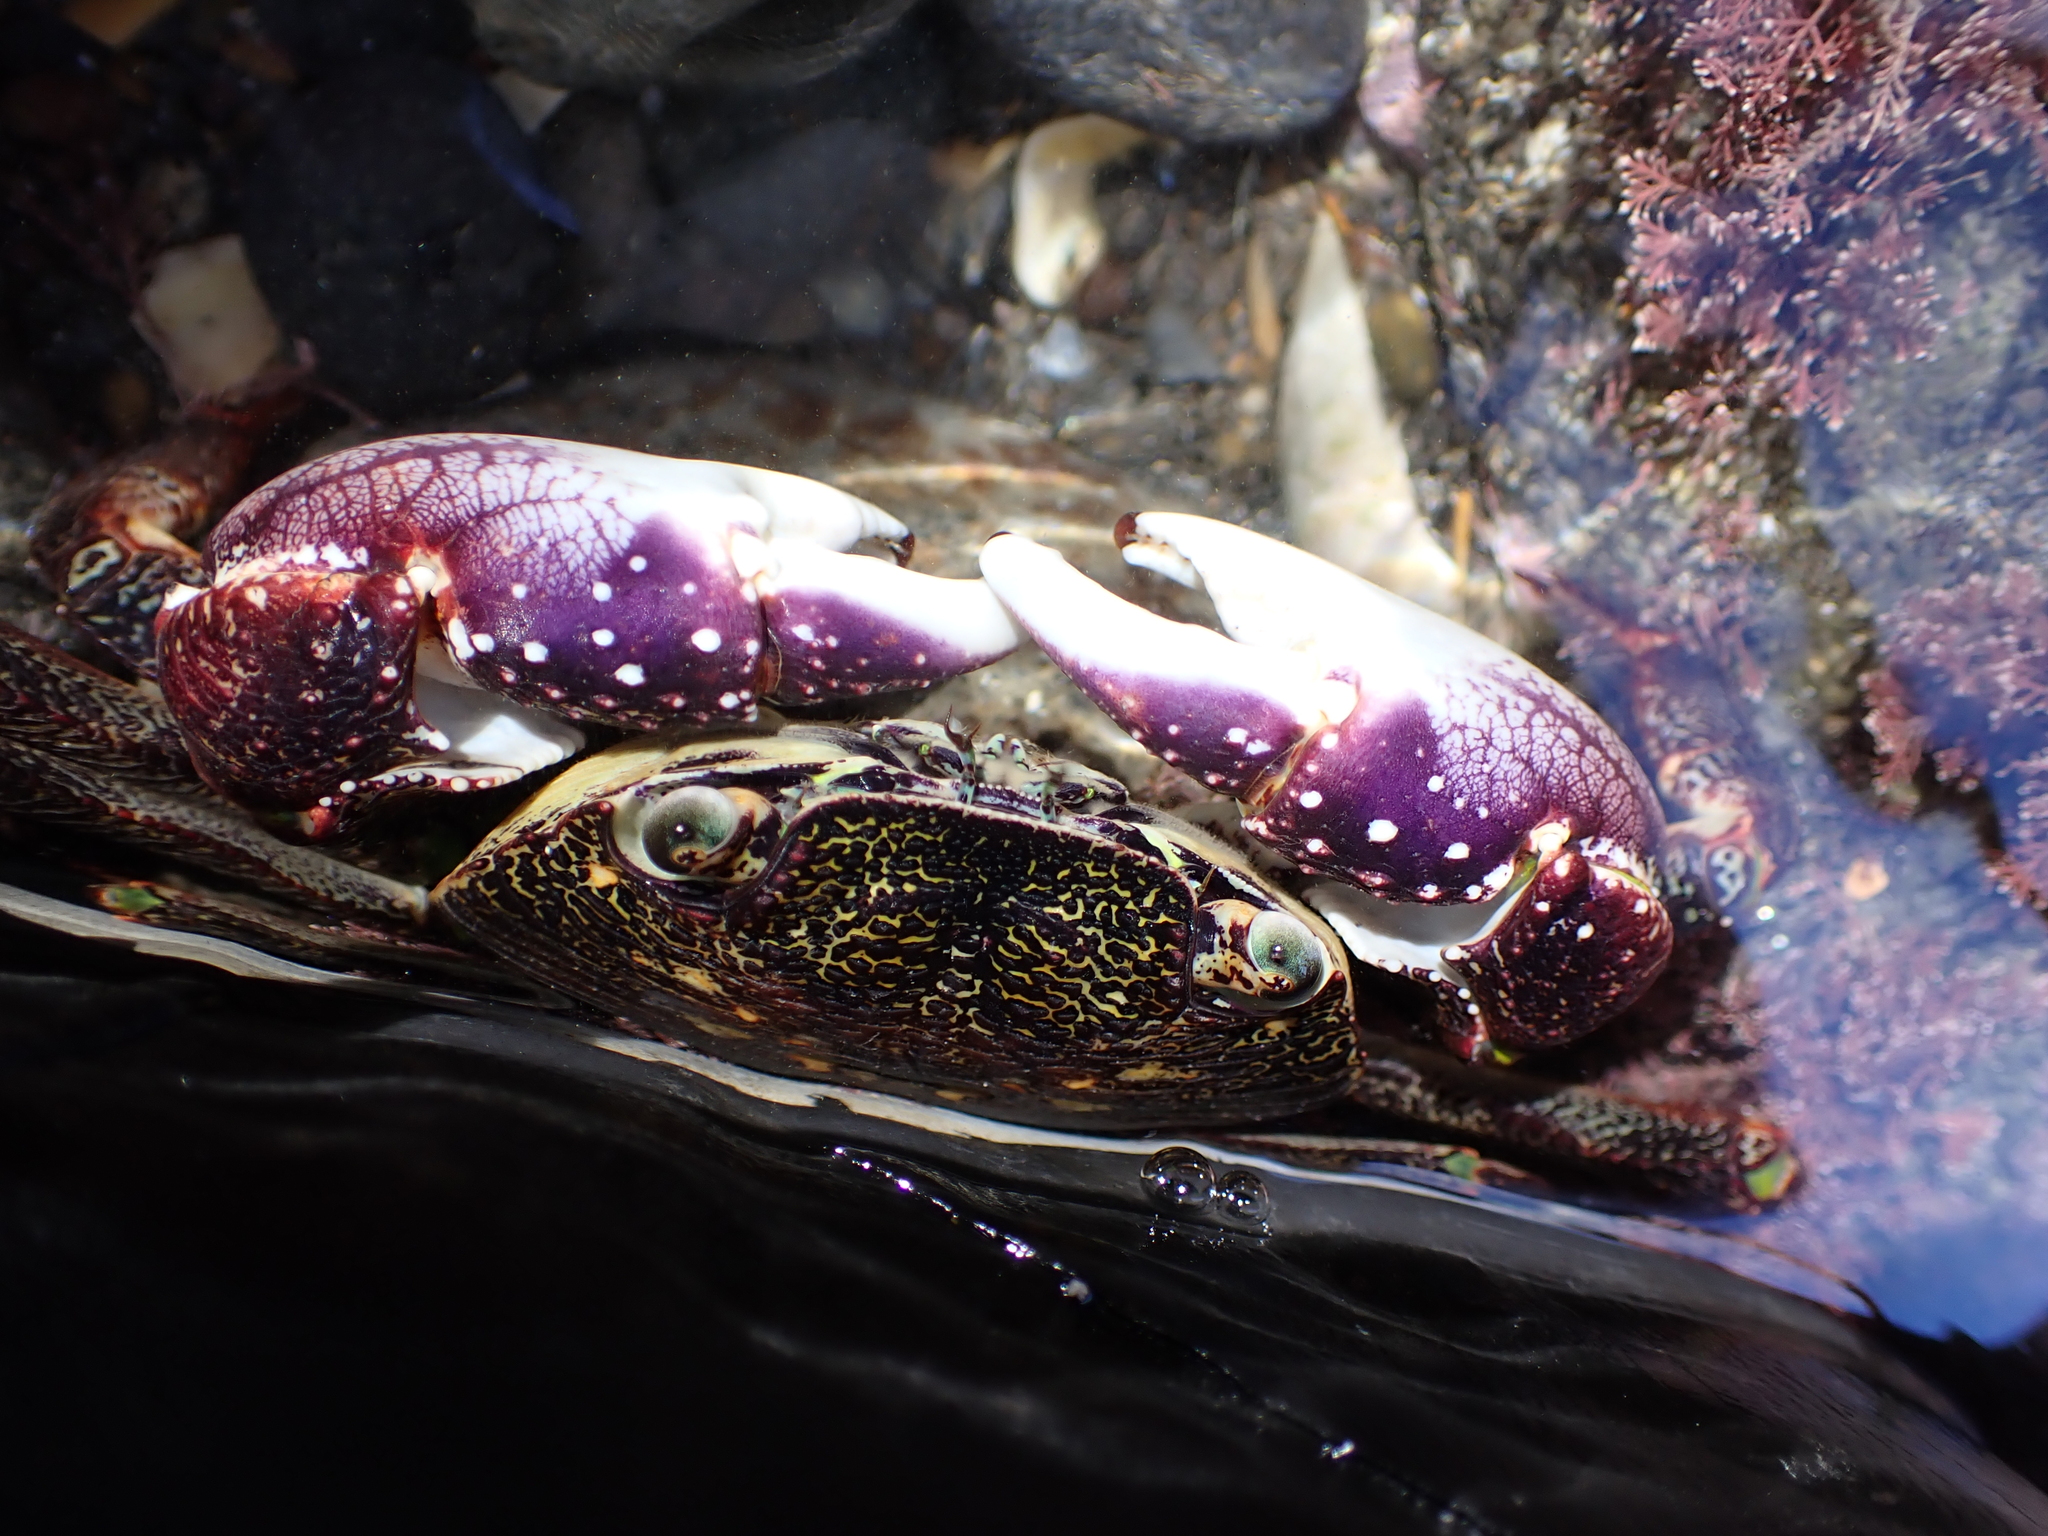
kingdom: Animalia
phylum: Arthropoda
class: Malacostraca
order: Decapoda
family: Grapsidae
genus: Leptograpsus
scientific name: Leptograpsus variegatus
